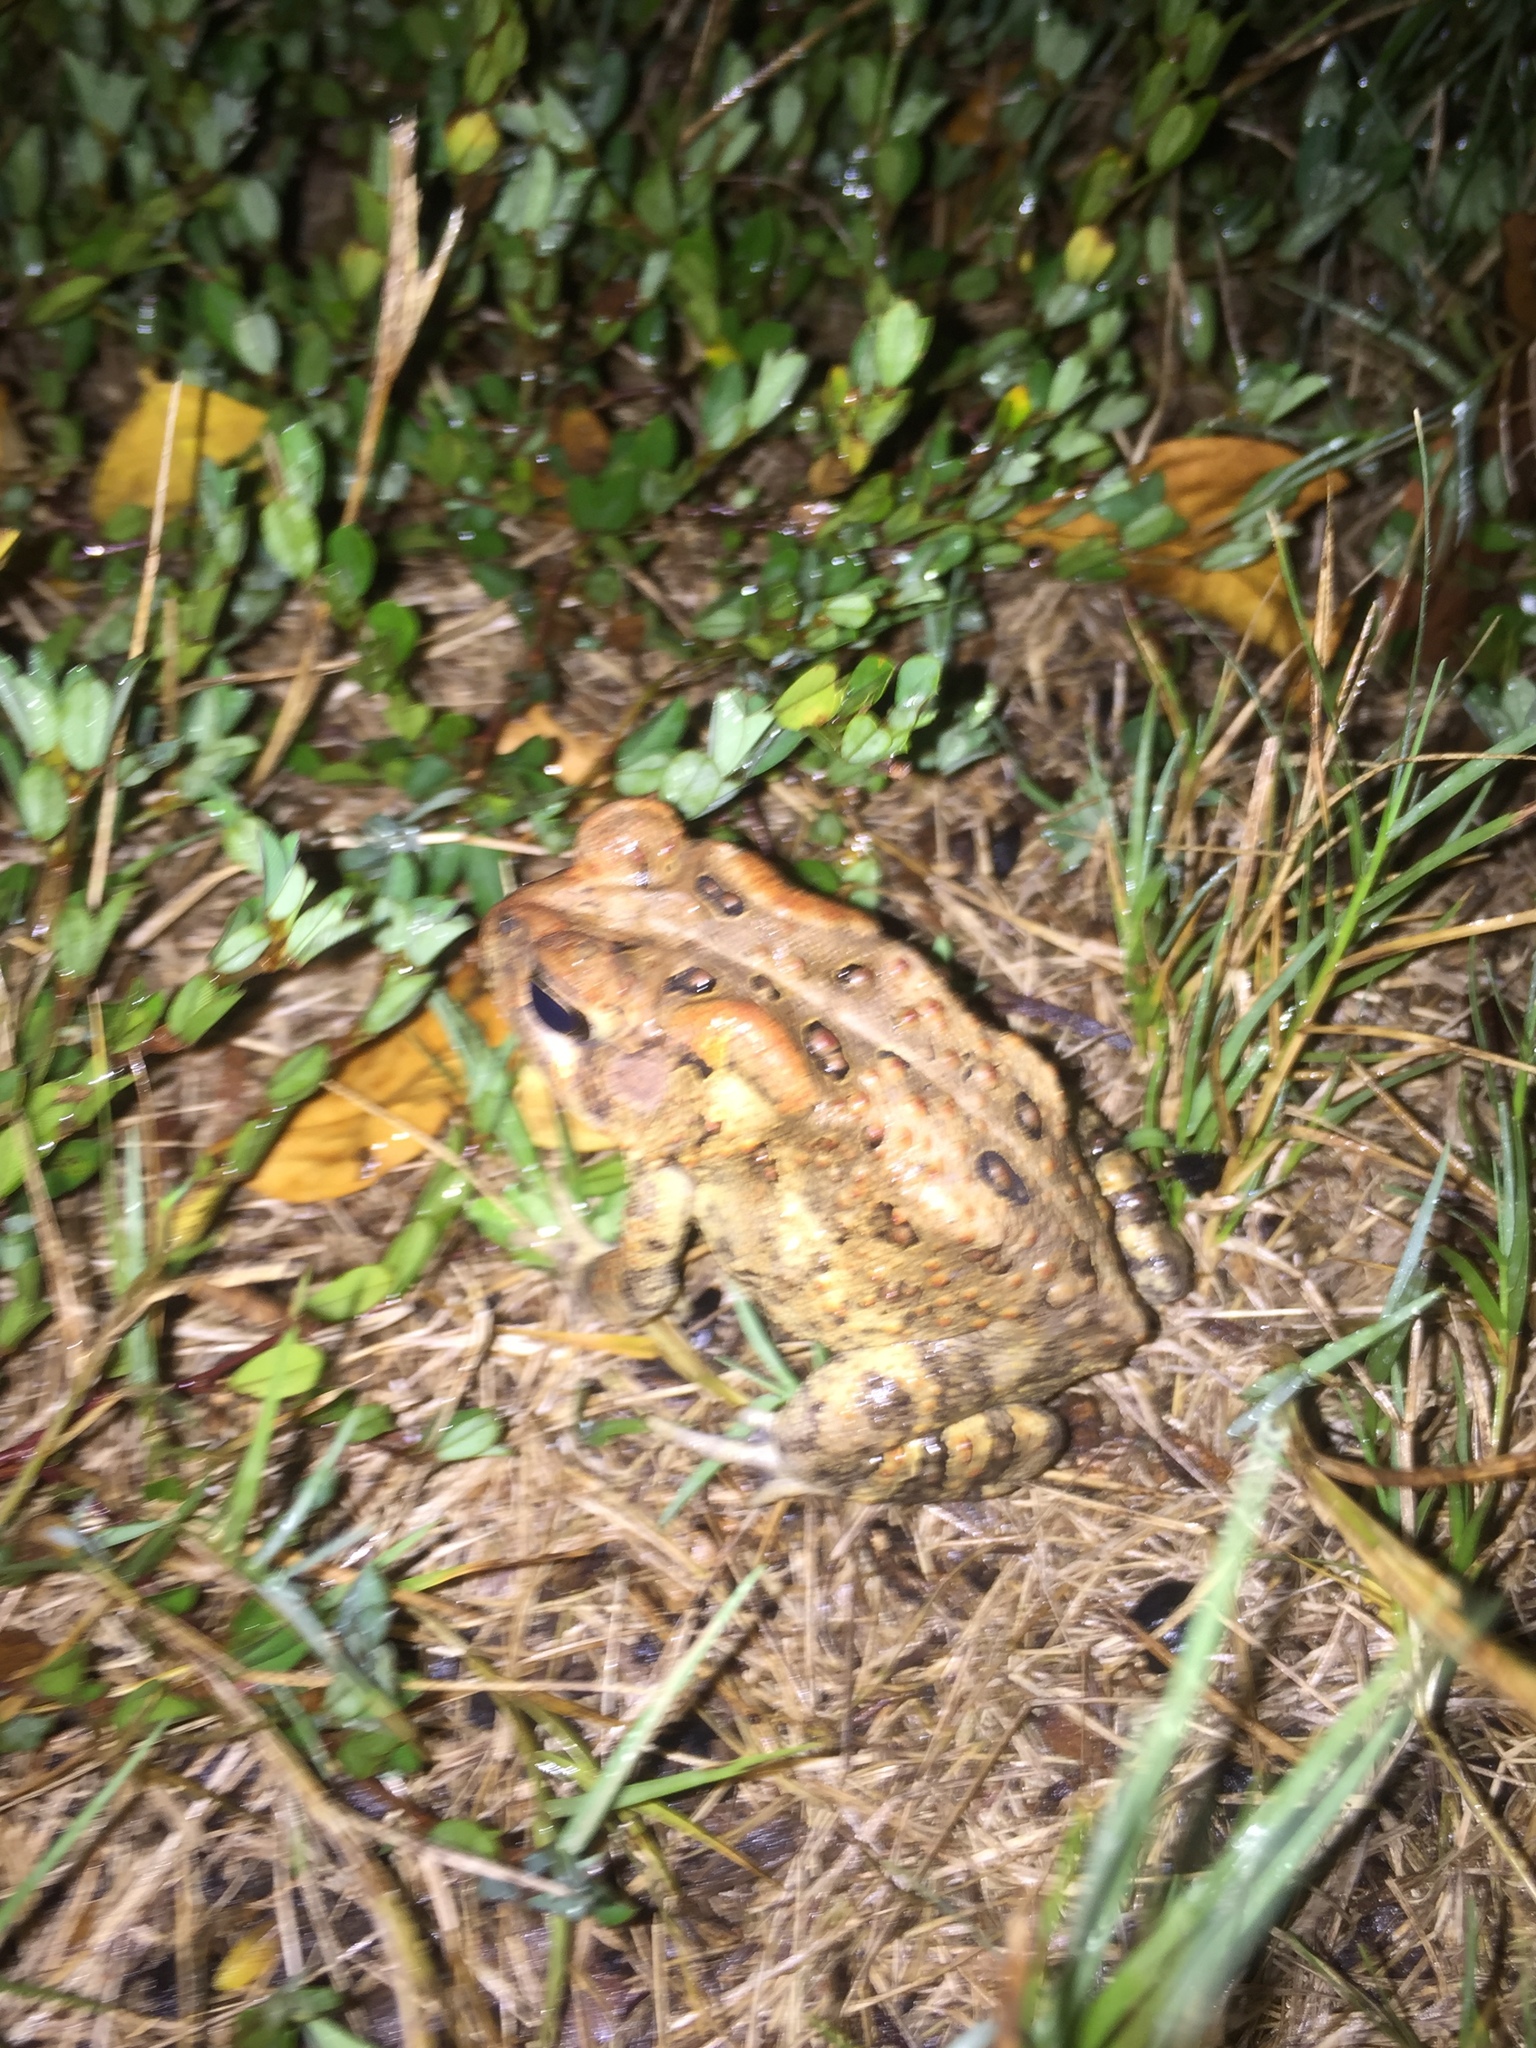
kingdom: Animalia
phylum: Chordata
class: Amphibia
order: Anura
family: Bufonidae
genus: Anaxyrus
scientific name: Anaxyrus americanus
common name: American toad
